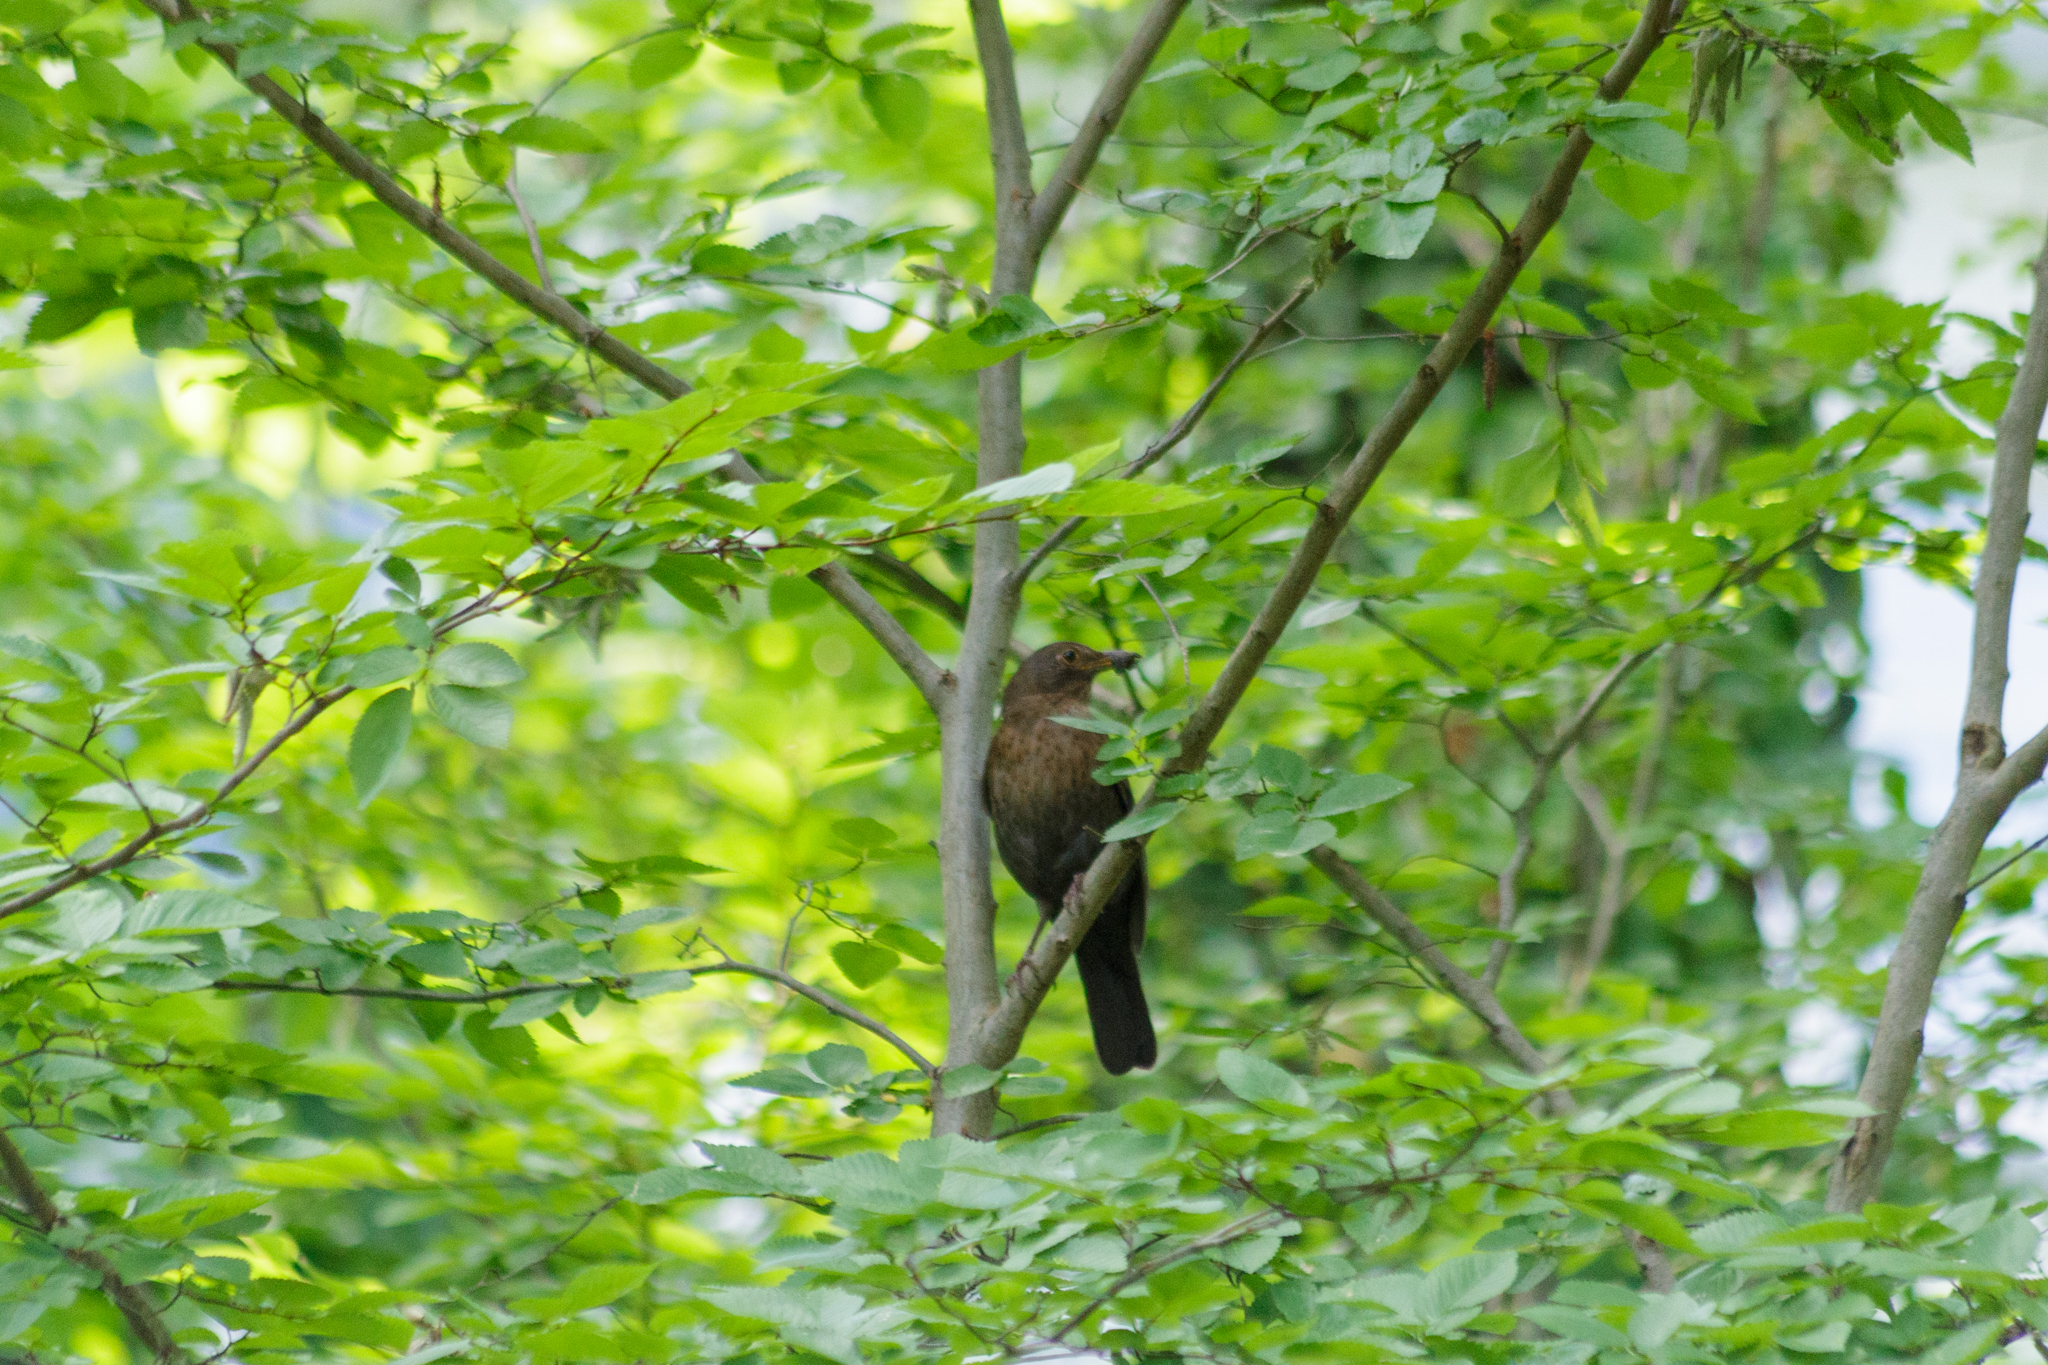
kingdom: Animalia
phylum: Chordata
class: Aves
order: Passeriformes
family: Turdidae
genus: Turdus
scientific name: Turdus merula
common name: Common blackbird
